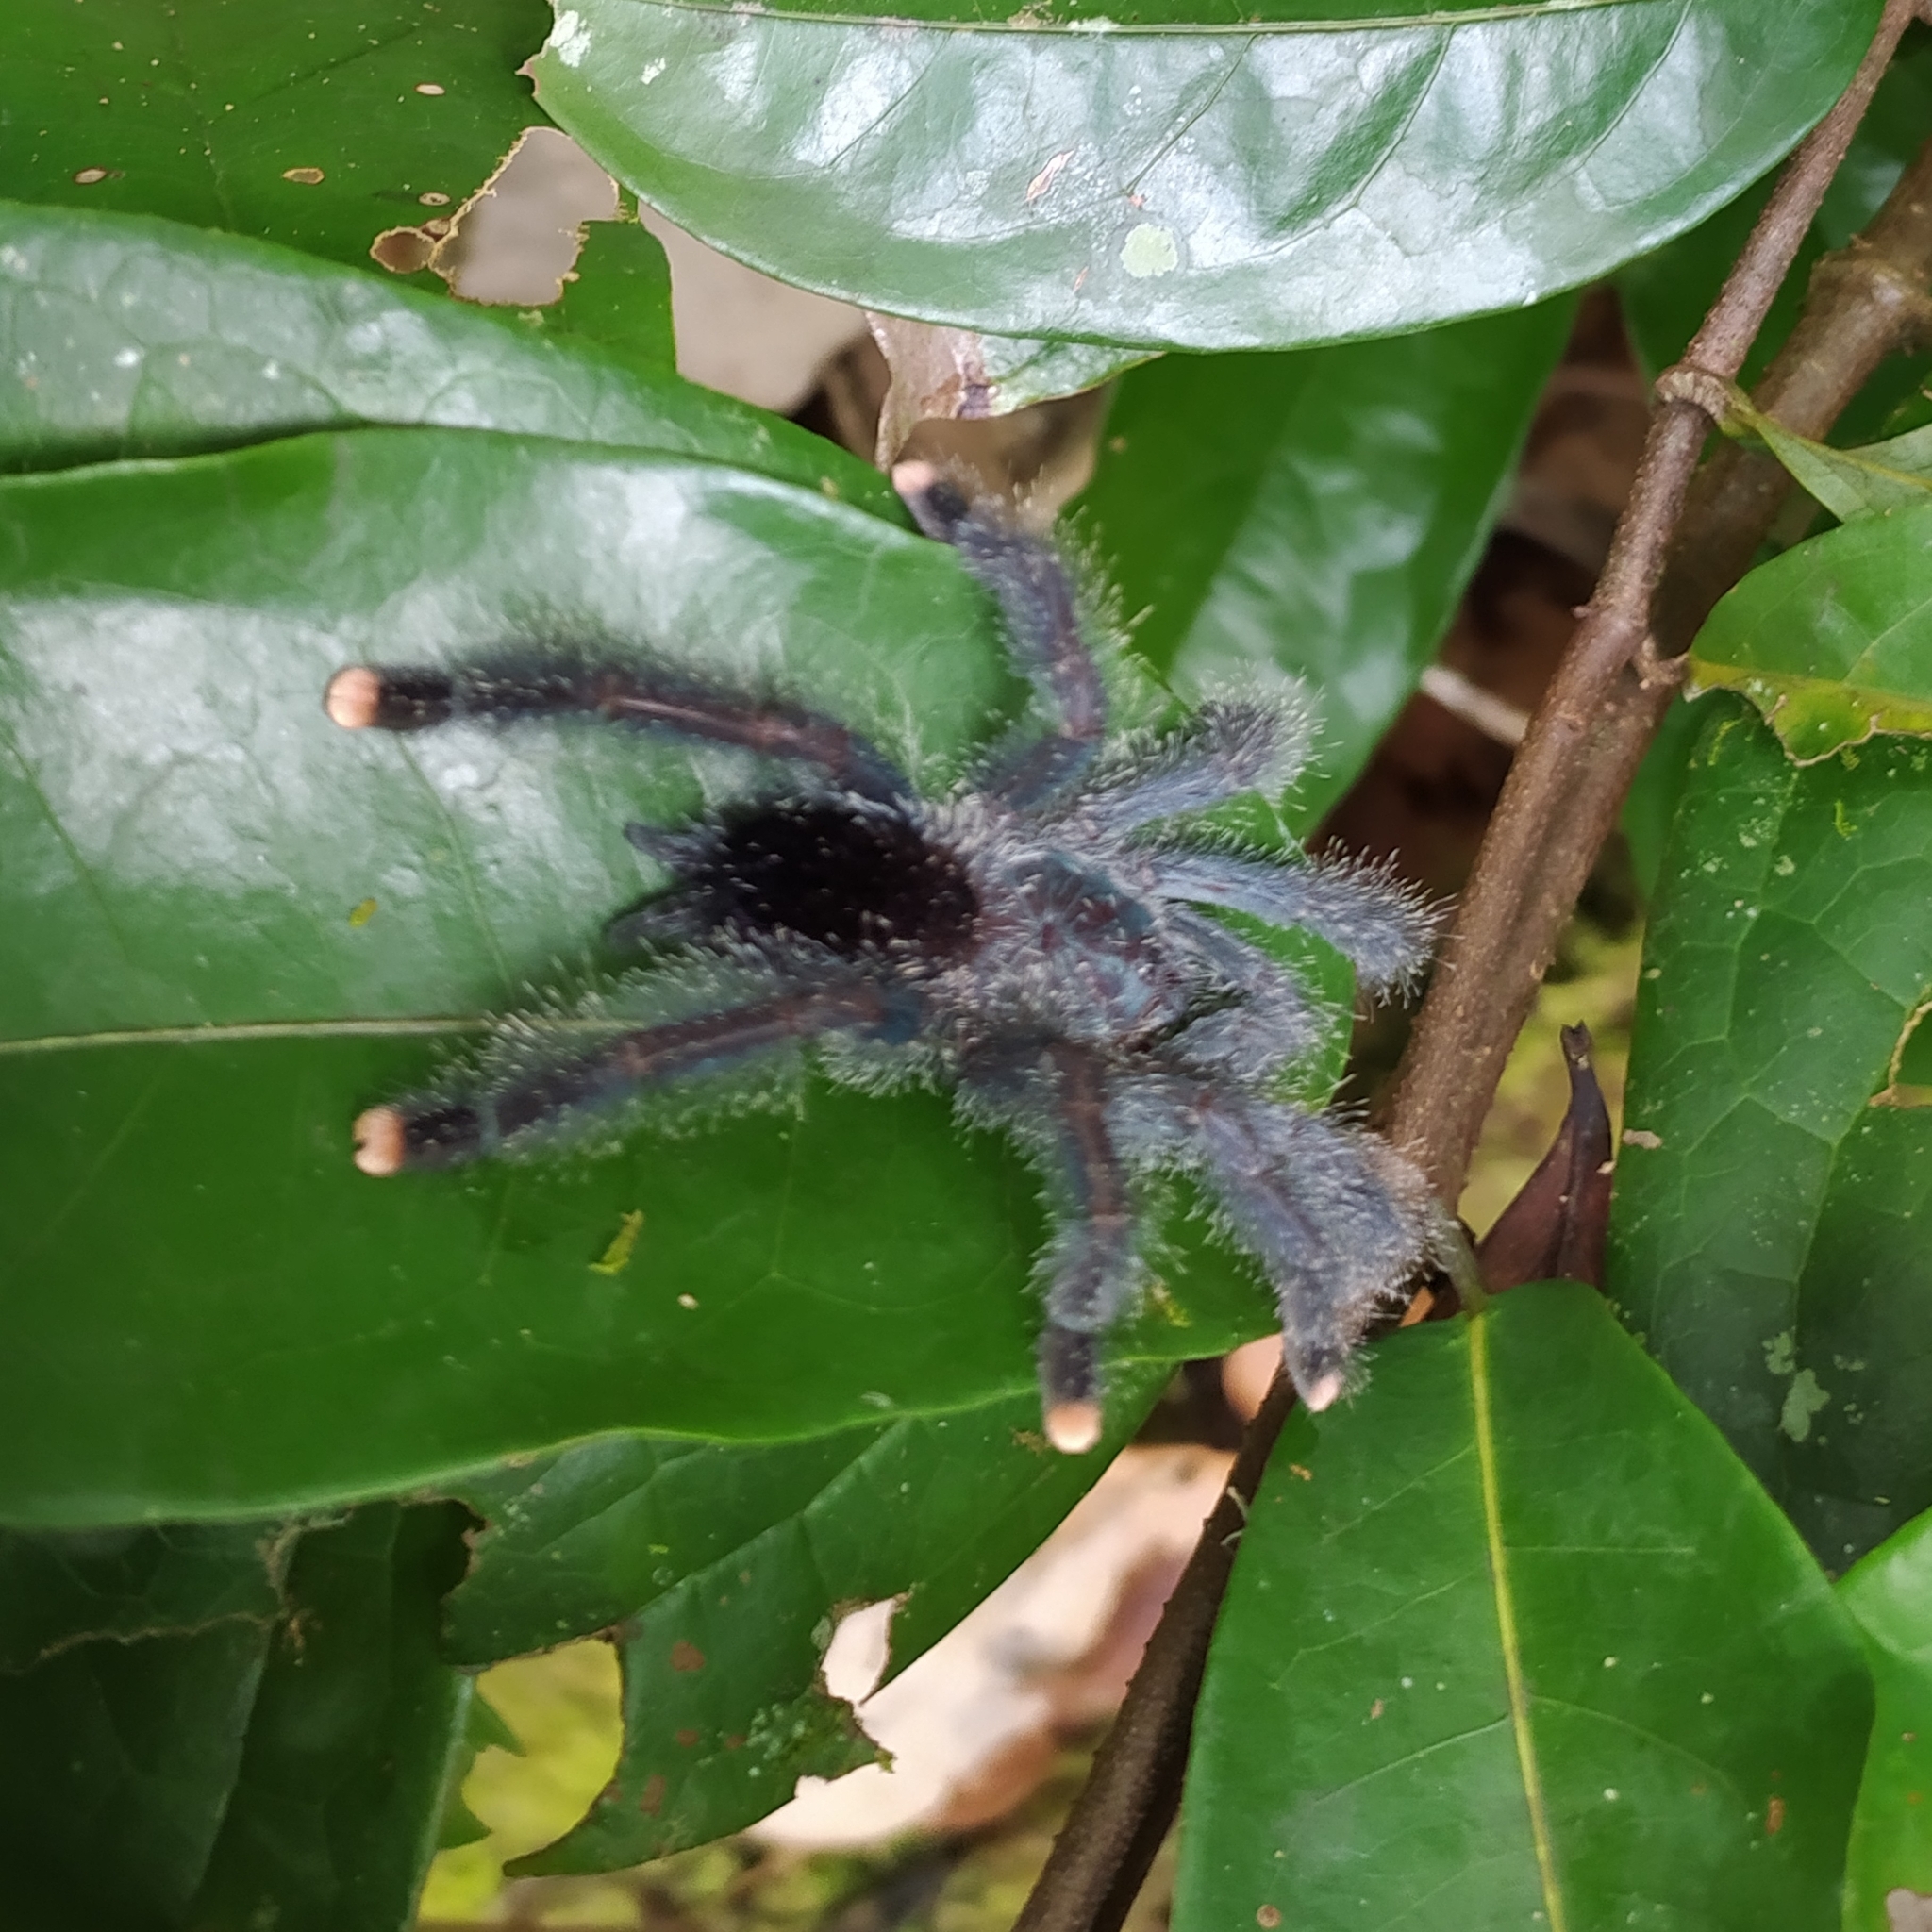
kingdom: Animalia
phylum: Arthropoda
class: Arachnida
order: Araneae
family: Theraphosidae
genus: Avicularia
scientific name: Avicularia avicularia
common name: Tarantula spiders
